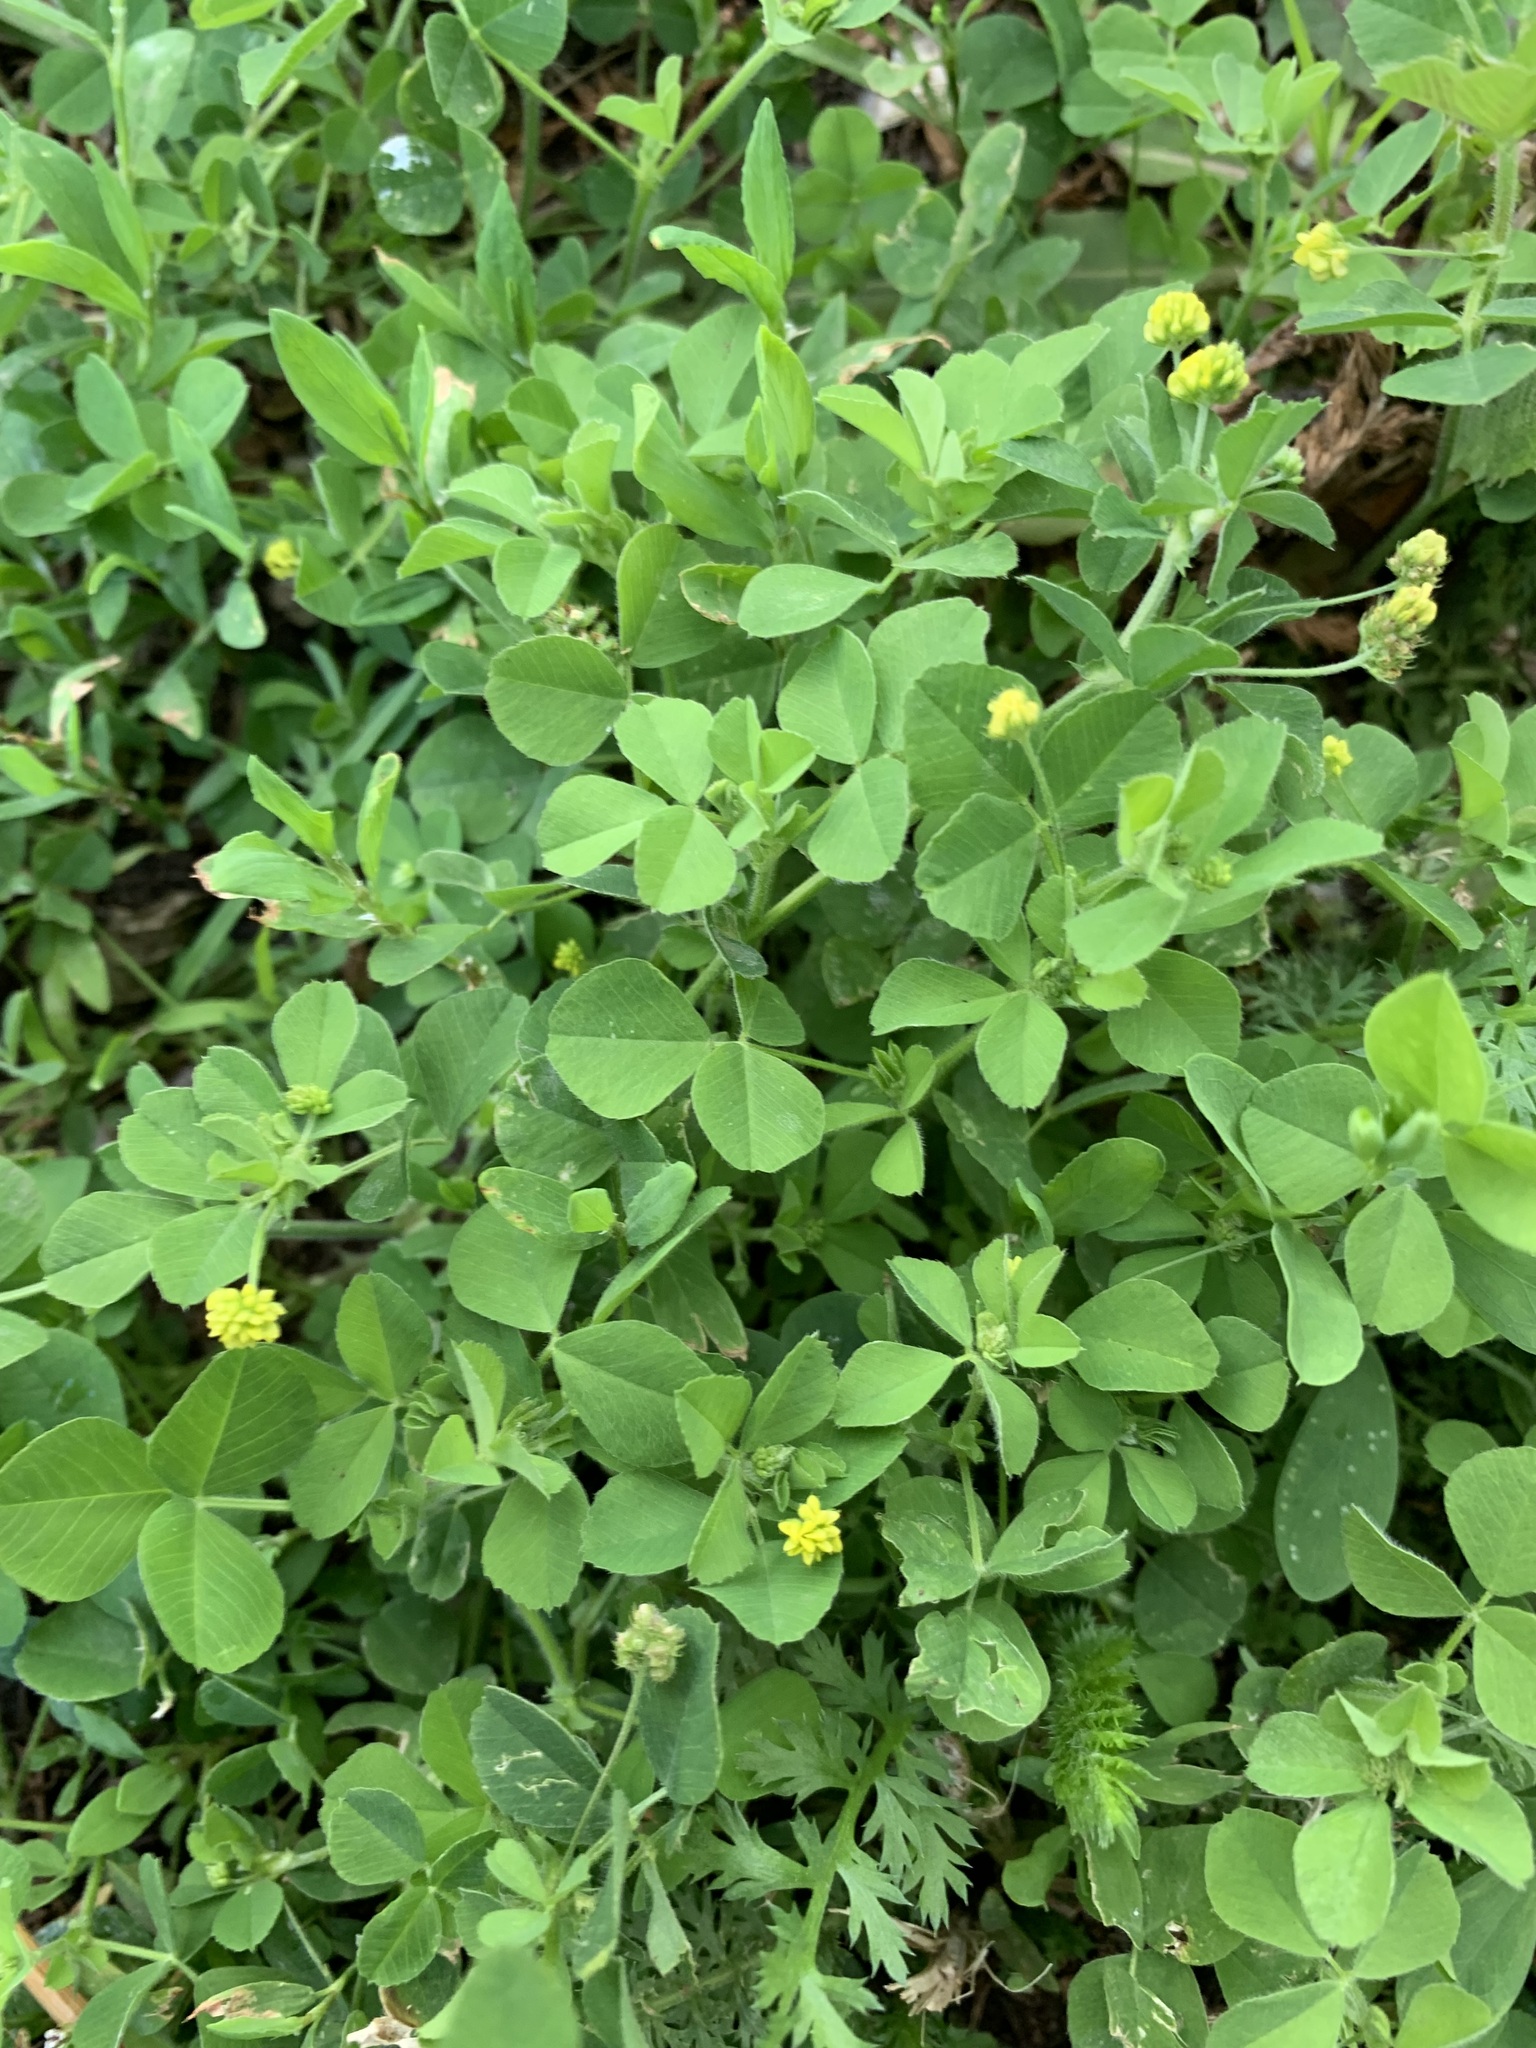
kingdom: Plantae
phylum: Tracheophyta
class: Magnoliopsida
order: Fabales
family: Fabaceae
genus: Medicago
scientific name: Medicago lupulina
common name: Black medick
